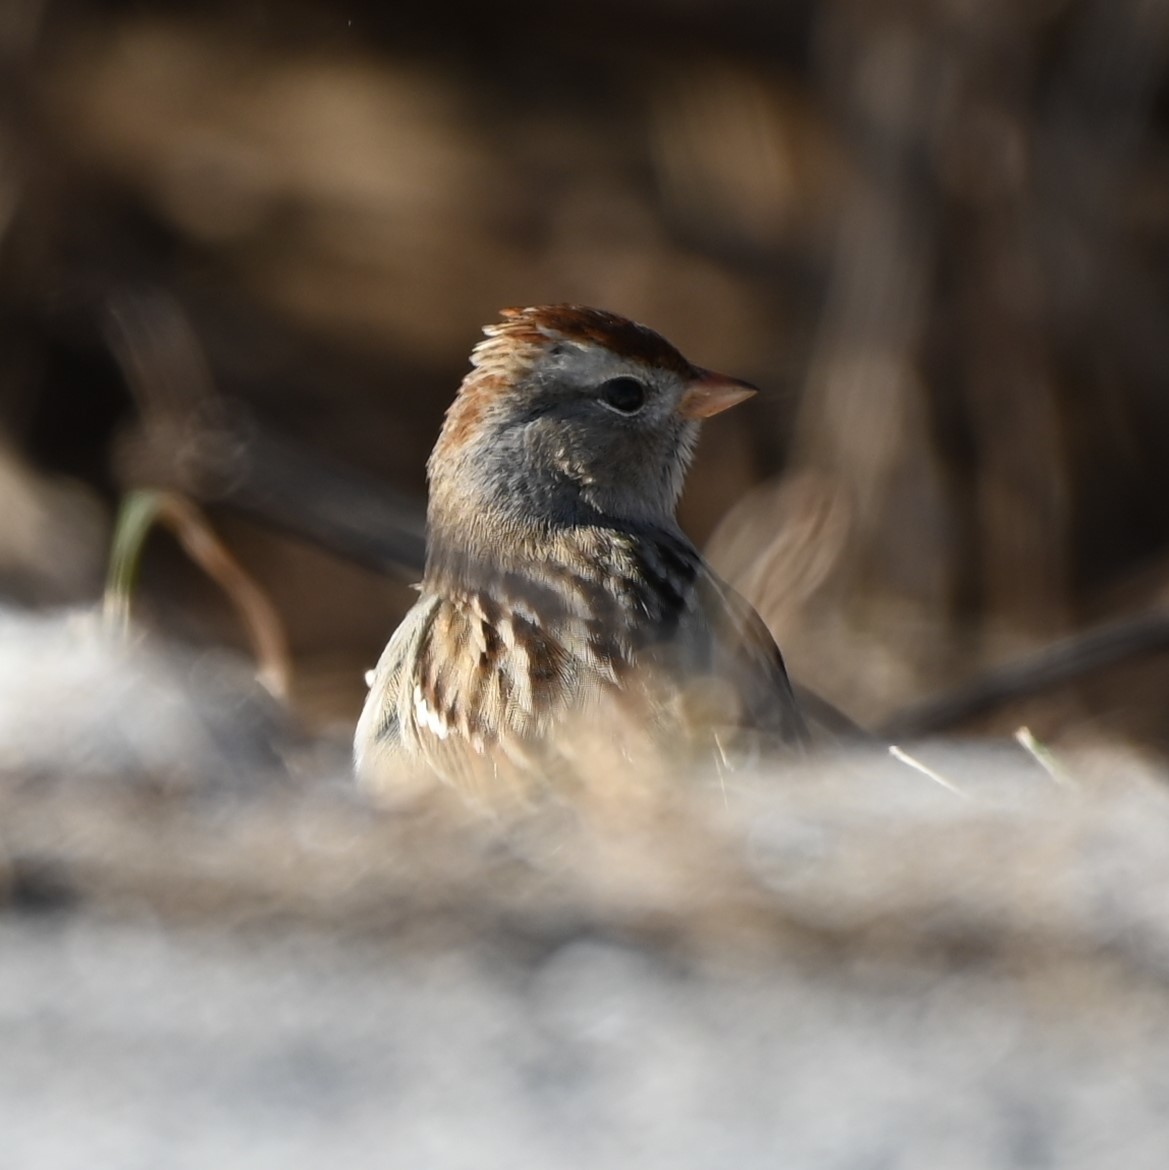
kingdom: Animalia
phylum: Chordata
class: Aves
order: Passeriformes
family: Passerellidae
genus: Zonotrichia
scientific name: Zonotrichia leucophrys
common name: White-crowned sparrow
